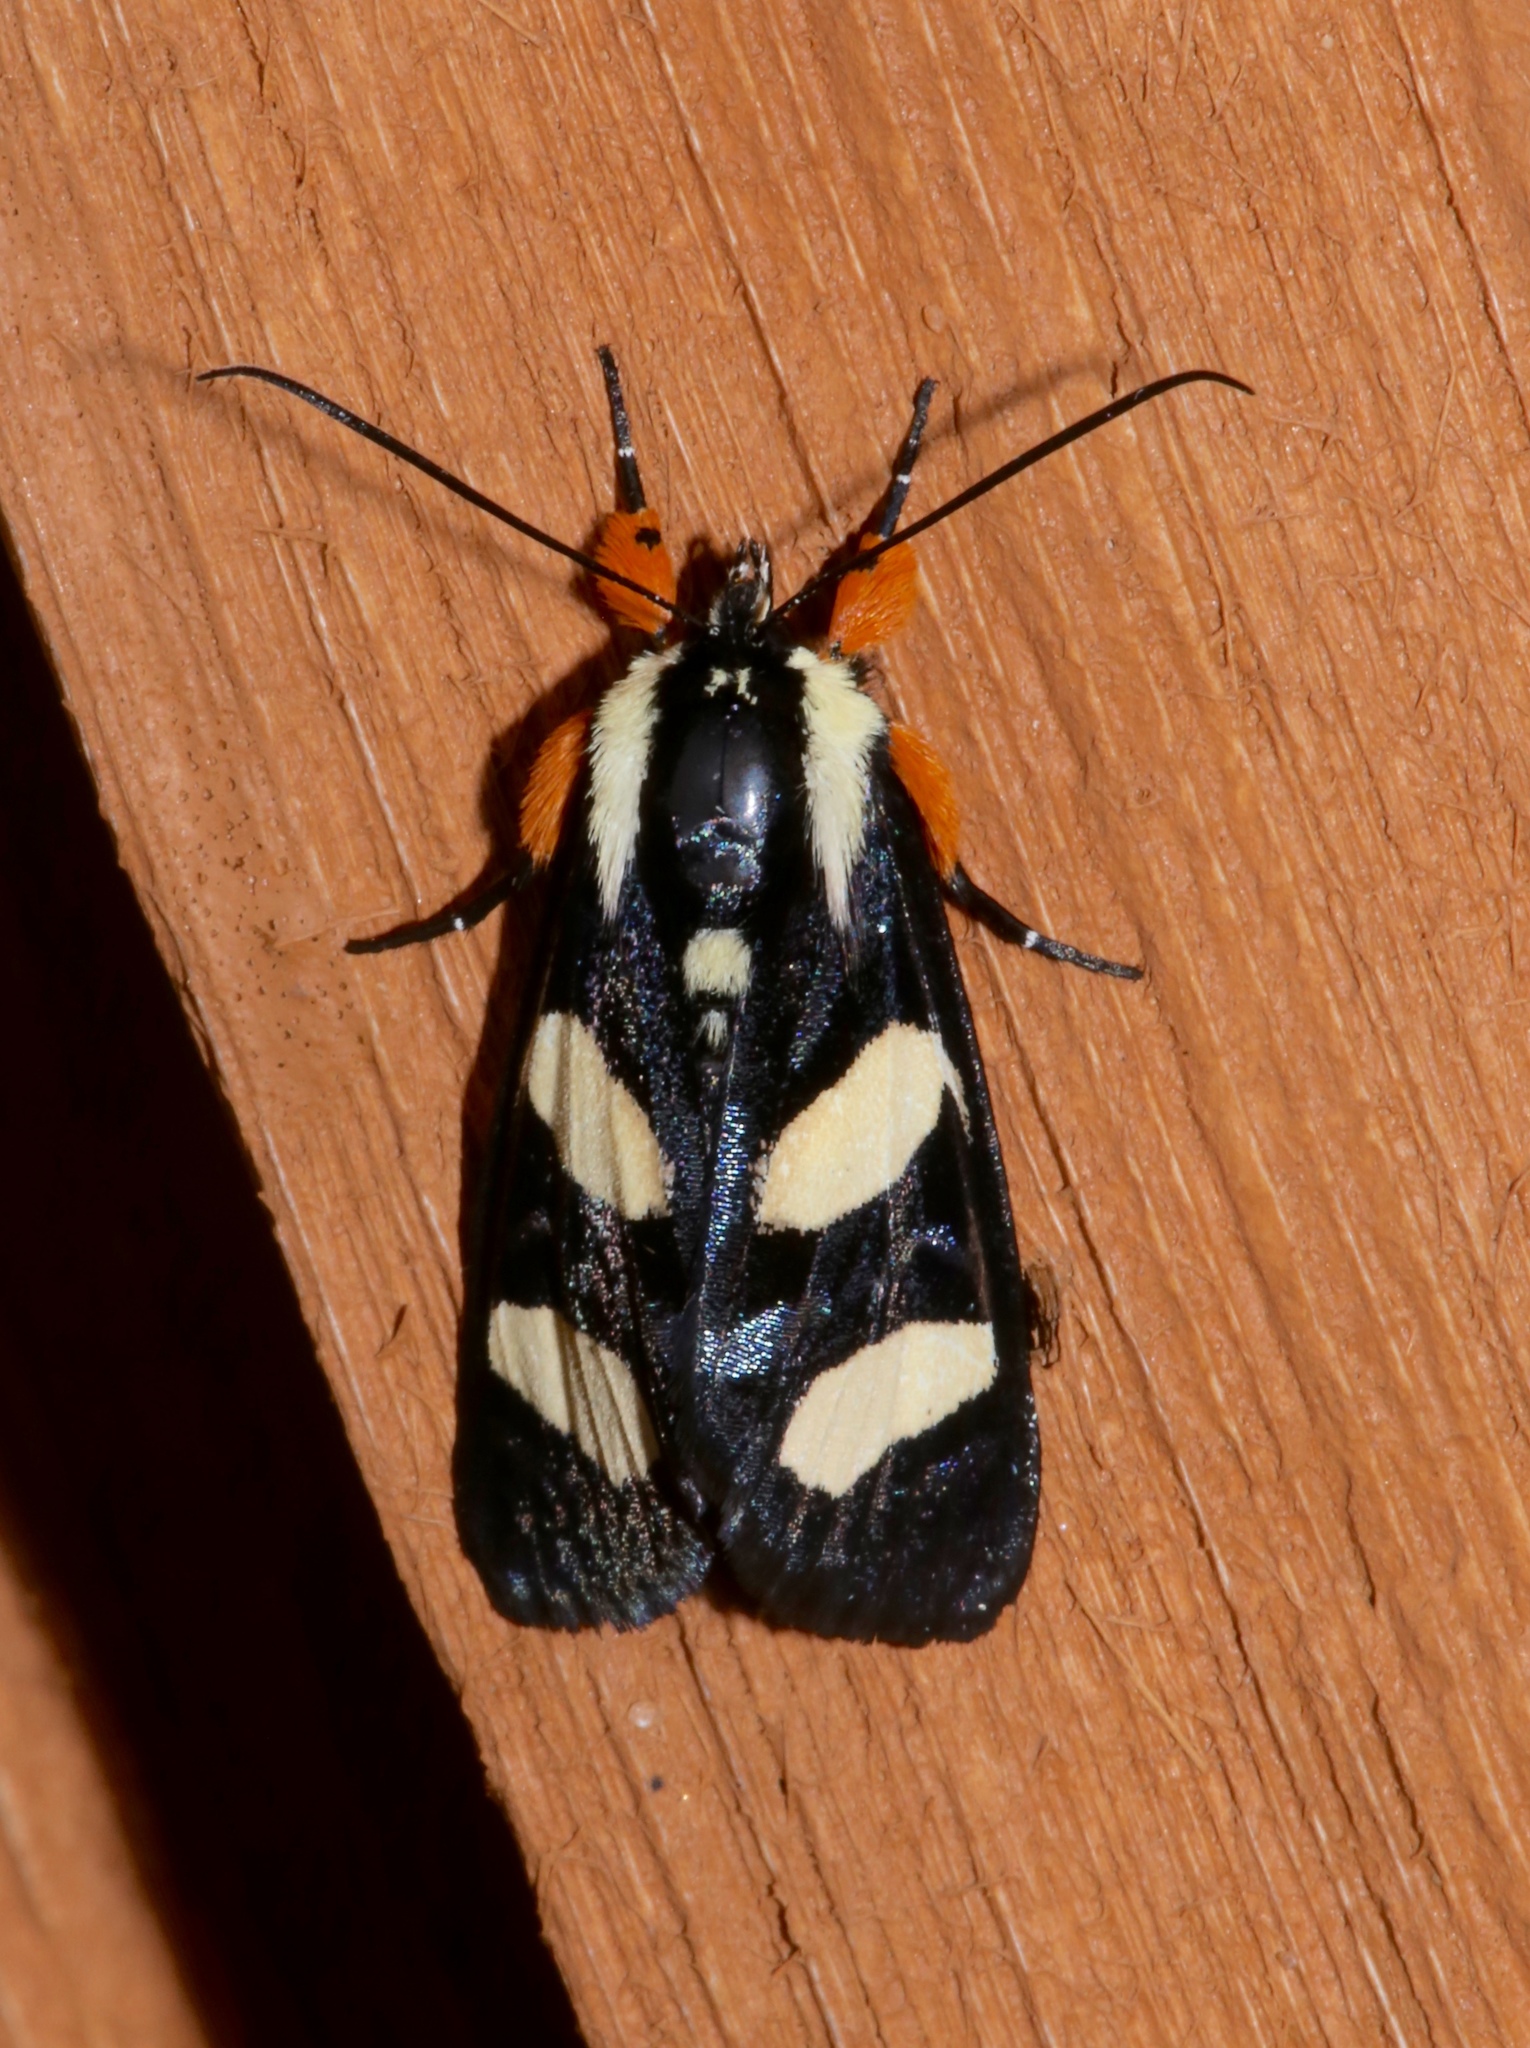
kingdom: Animalia
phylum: Arthropoda
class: Insecta
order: Lepidoptera
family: Noctuidae
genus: Alypia
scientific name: Alypia wittfeldii
